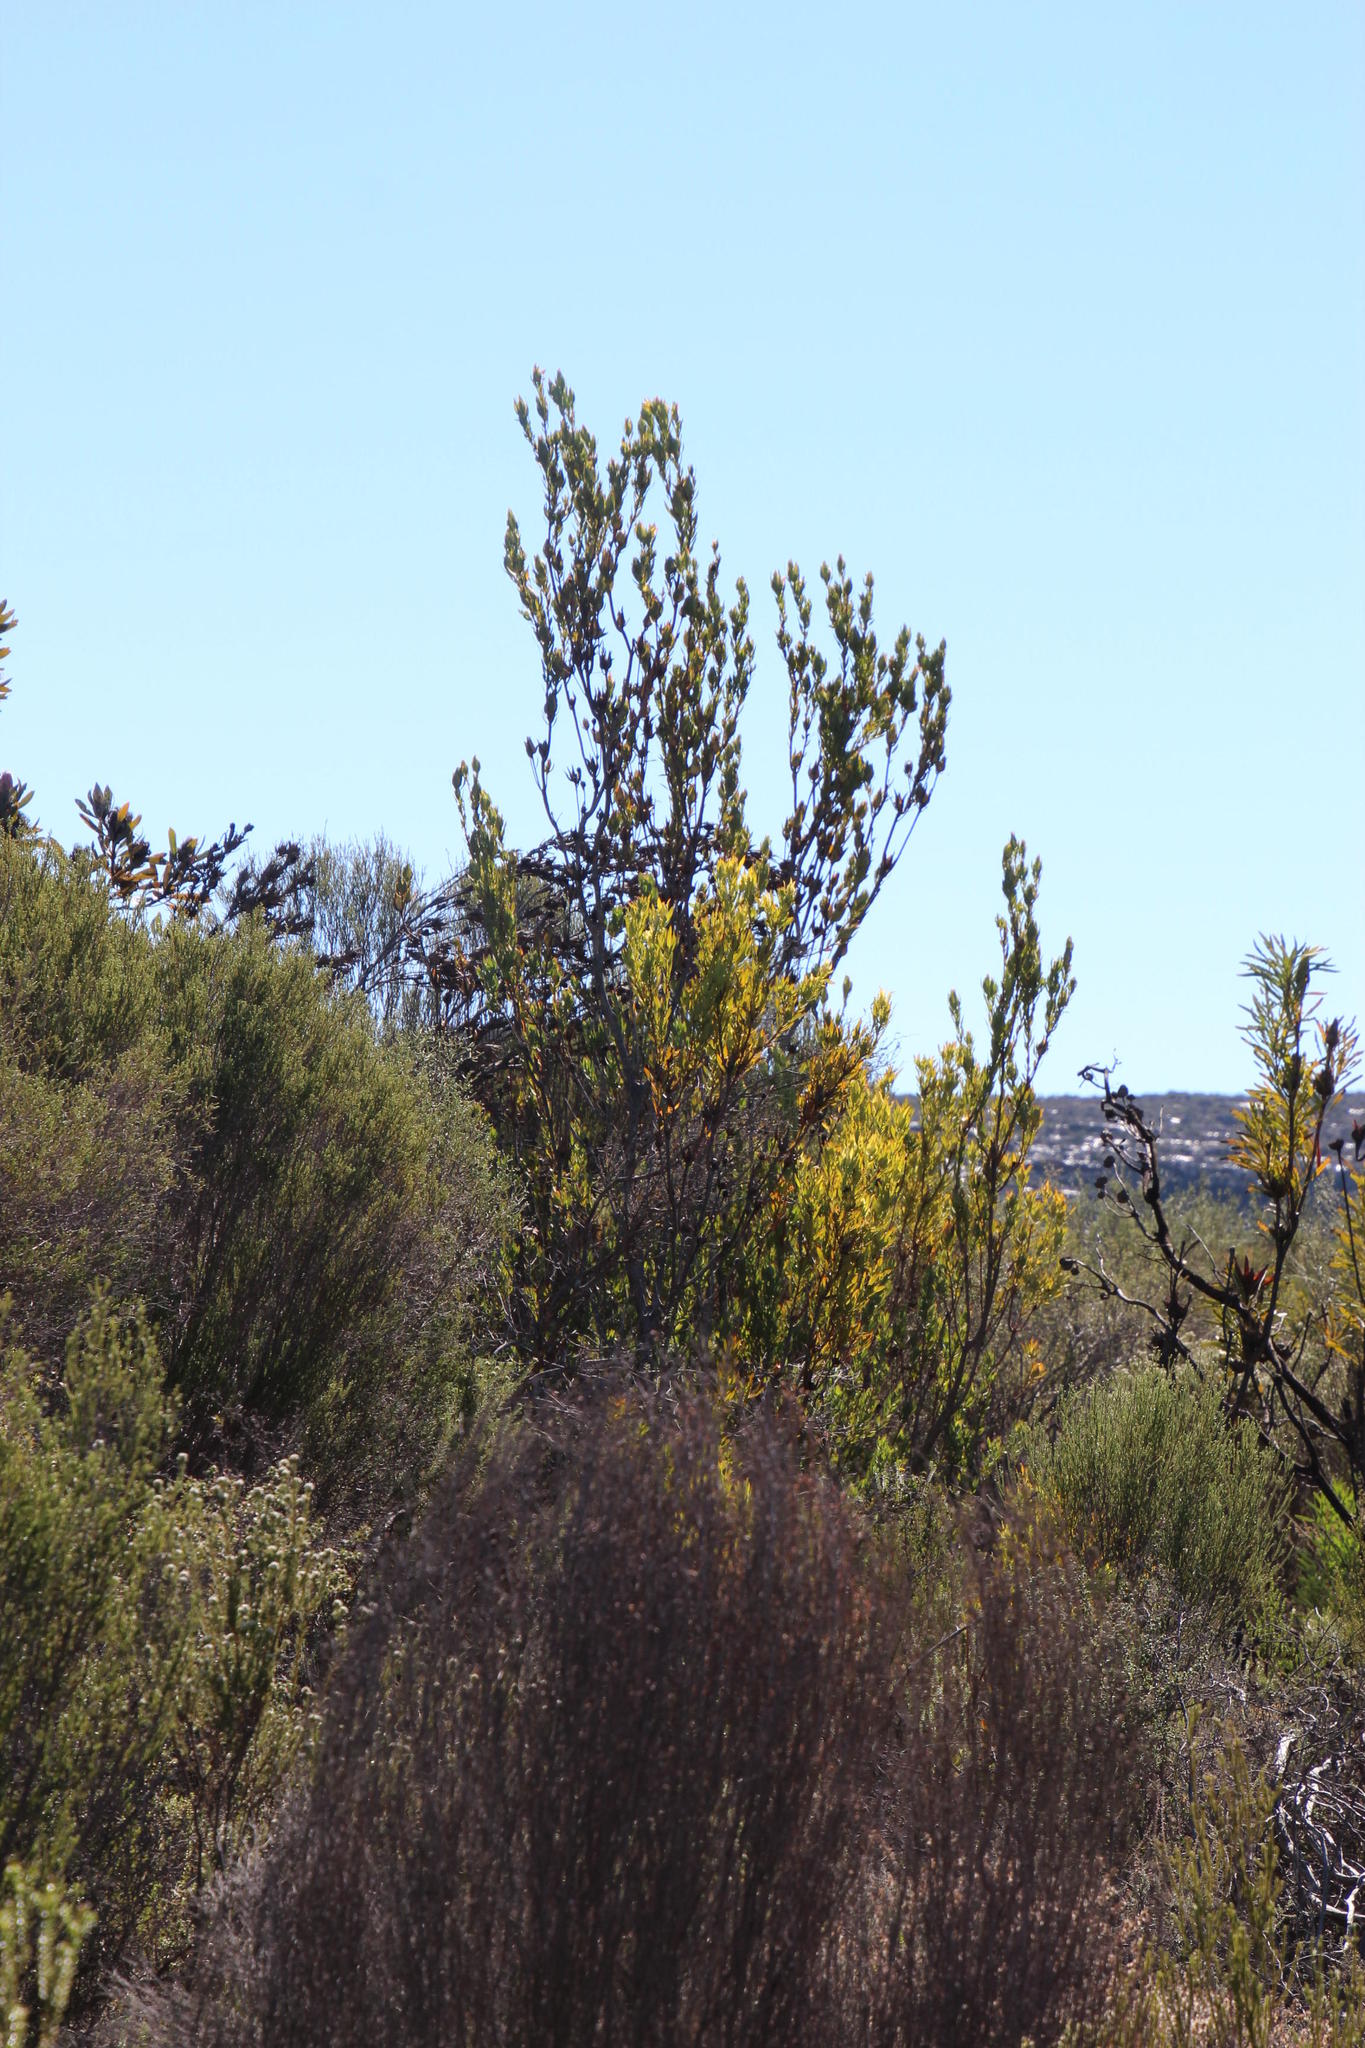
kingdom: Plantae
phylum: Tracheophyta
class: Magnoliopsida
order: Proteales
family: Proteaceae
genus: Leucadendron
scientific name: Leucadendron procerum
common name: Ivory conebush
